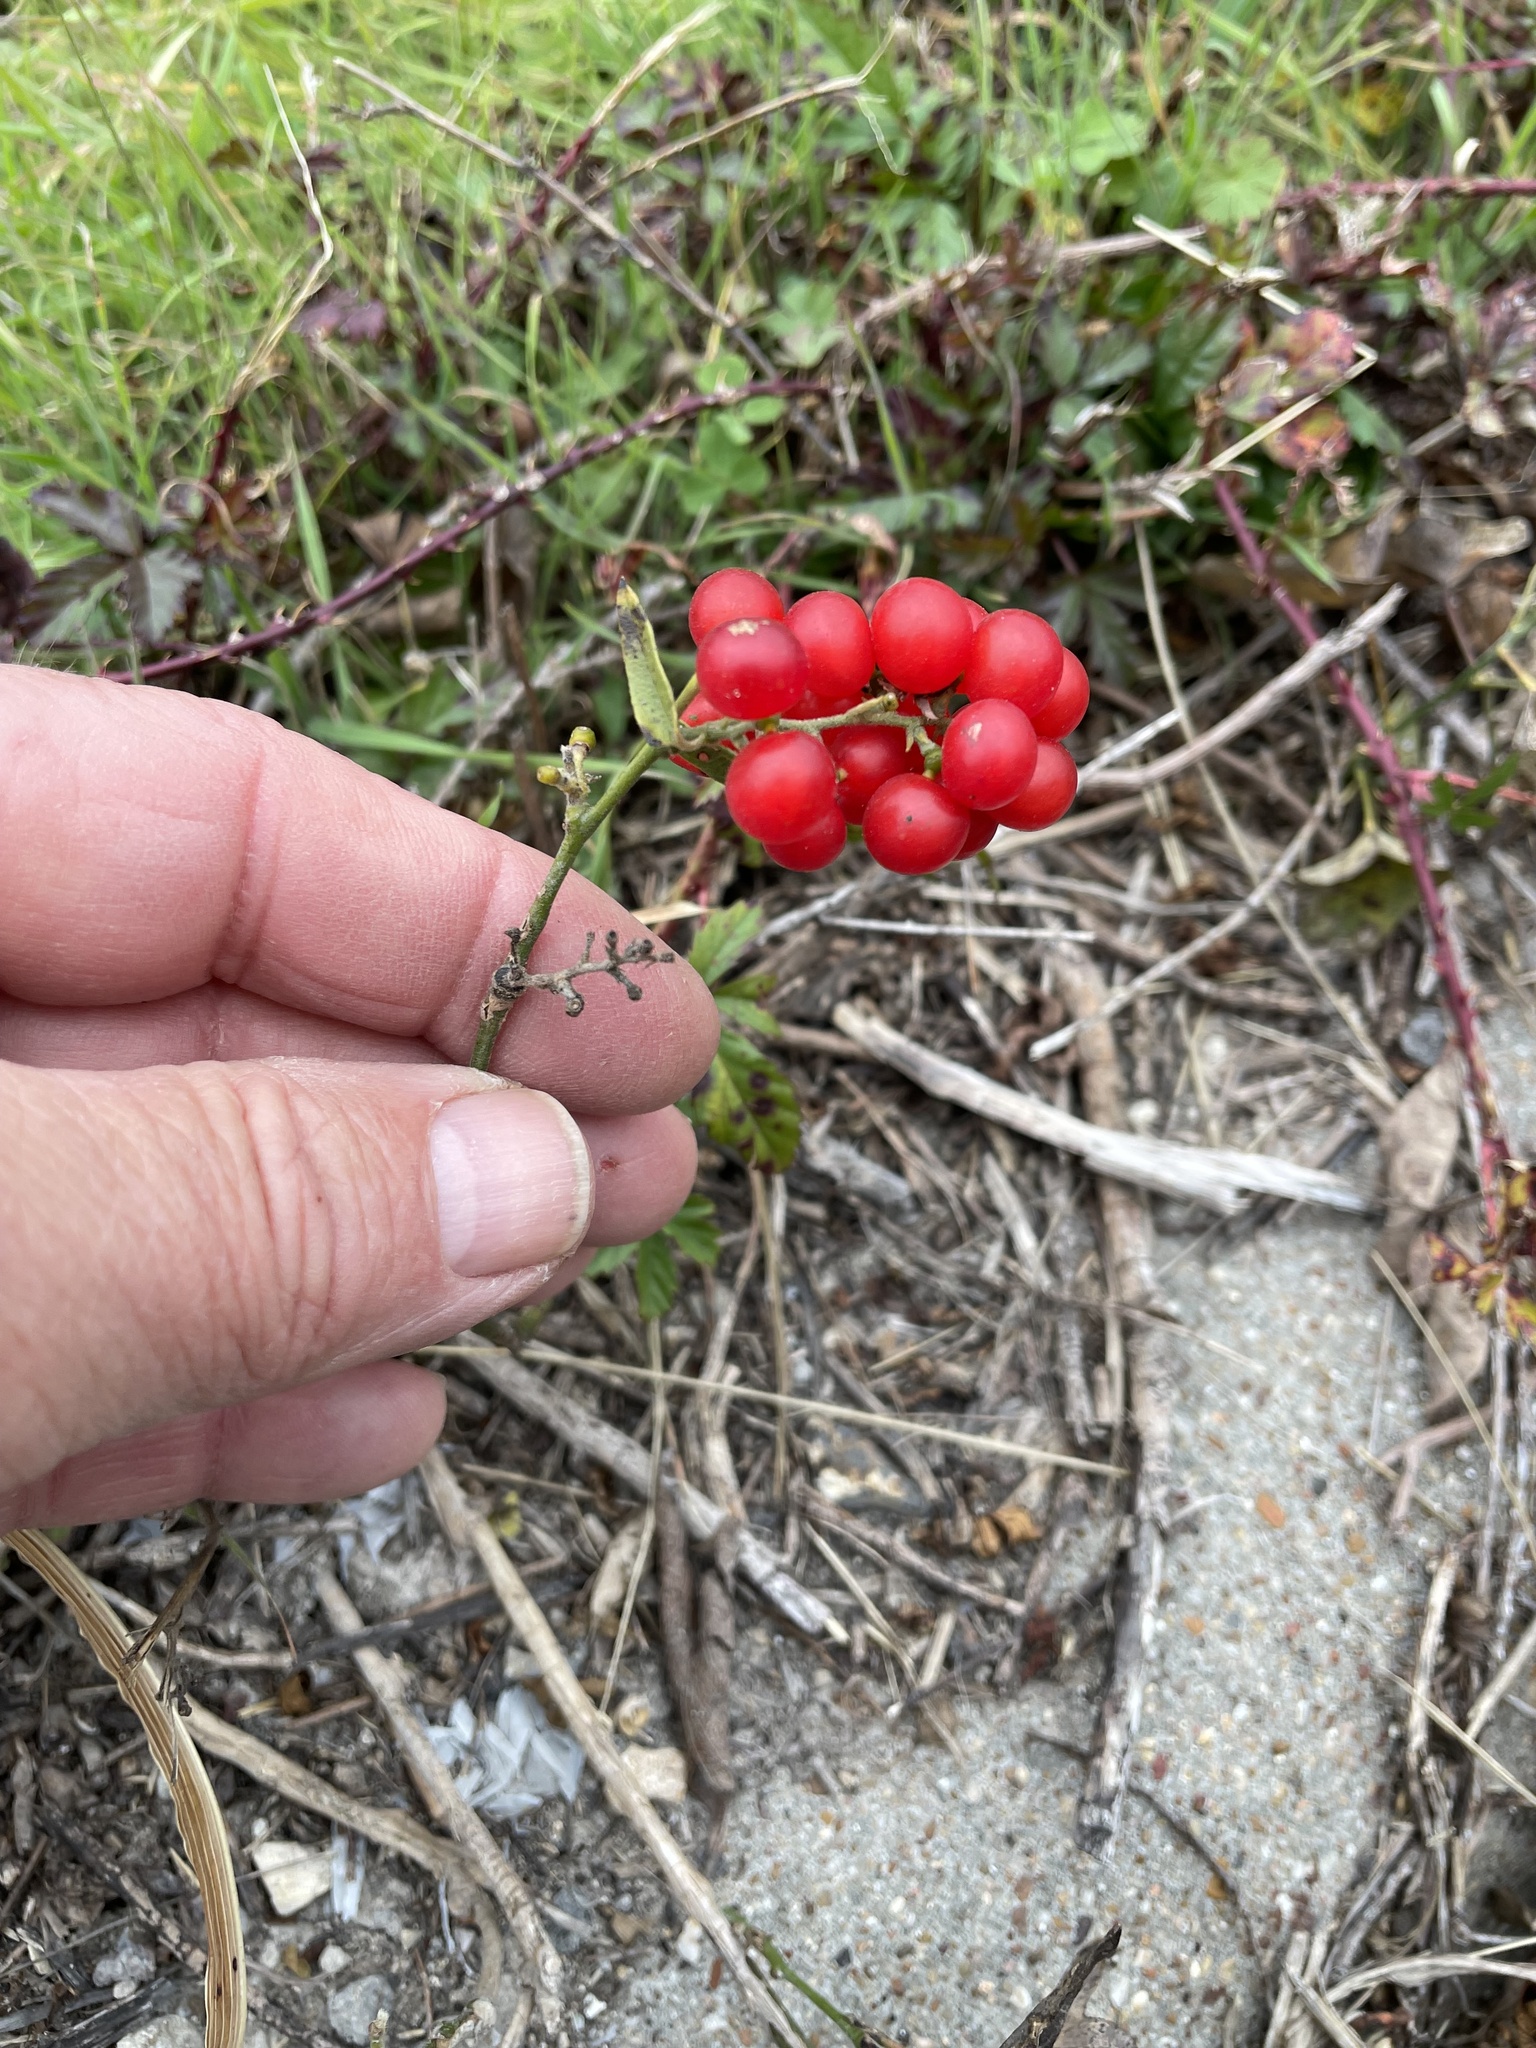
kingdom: Plantae
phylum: Tracheophyta
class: Magnoliopsida
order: Ranunculales
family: Menispermaceae
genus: Cocculus
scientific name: Cocculus carolinus
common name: Carolina moonseed
